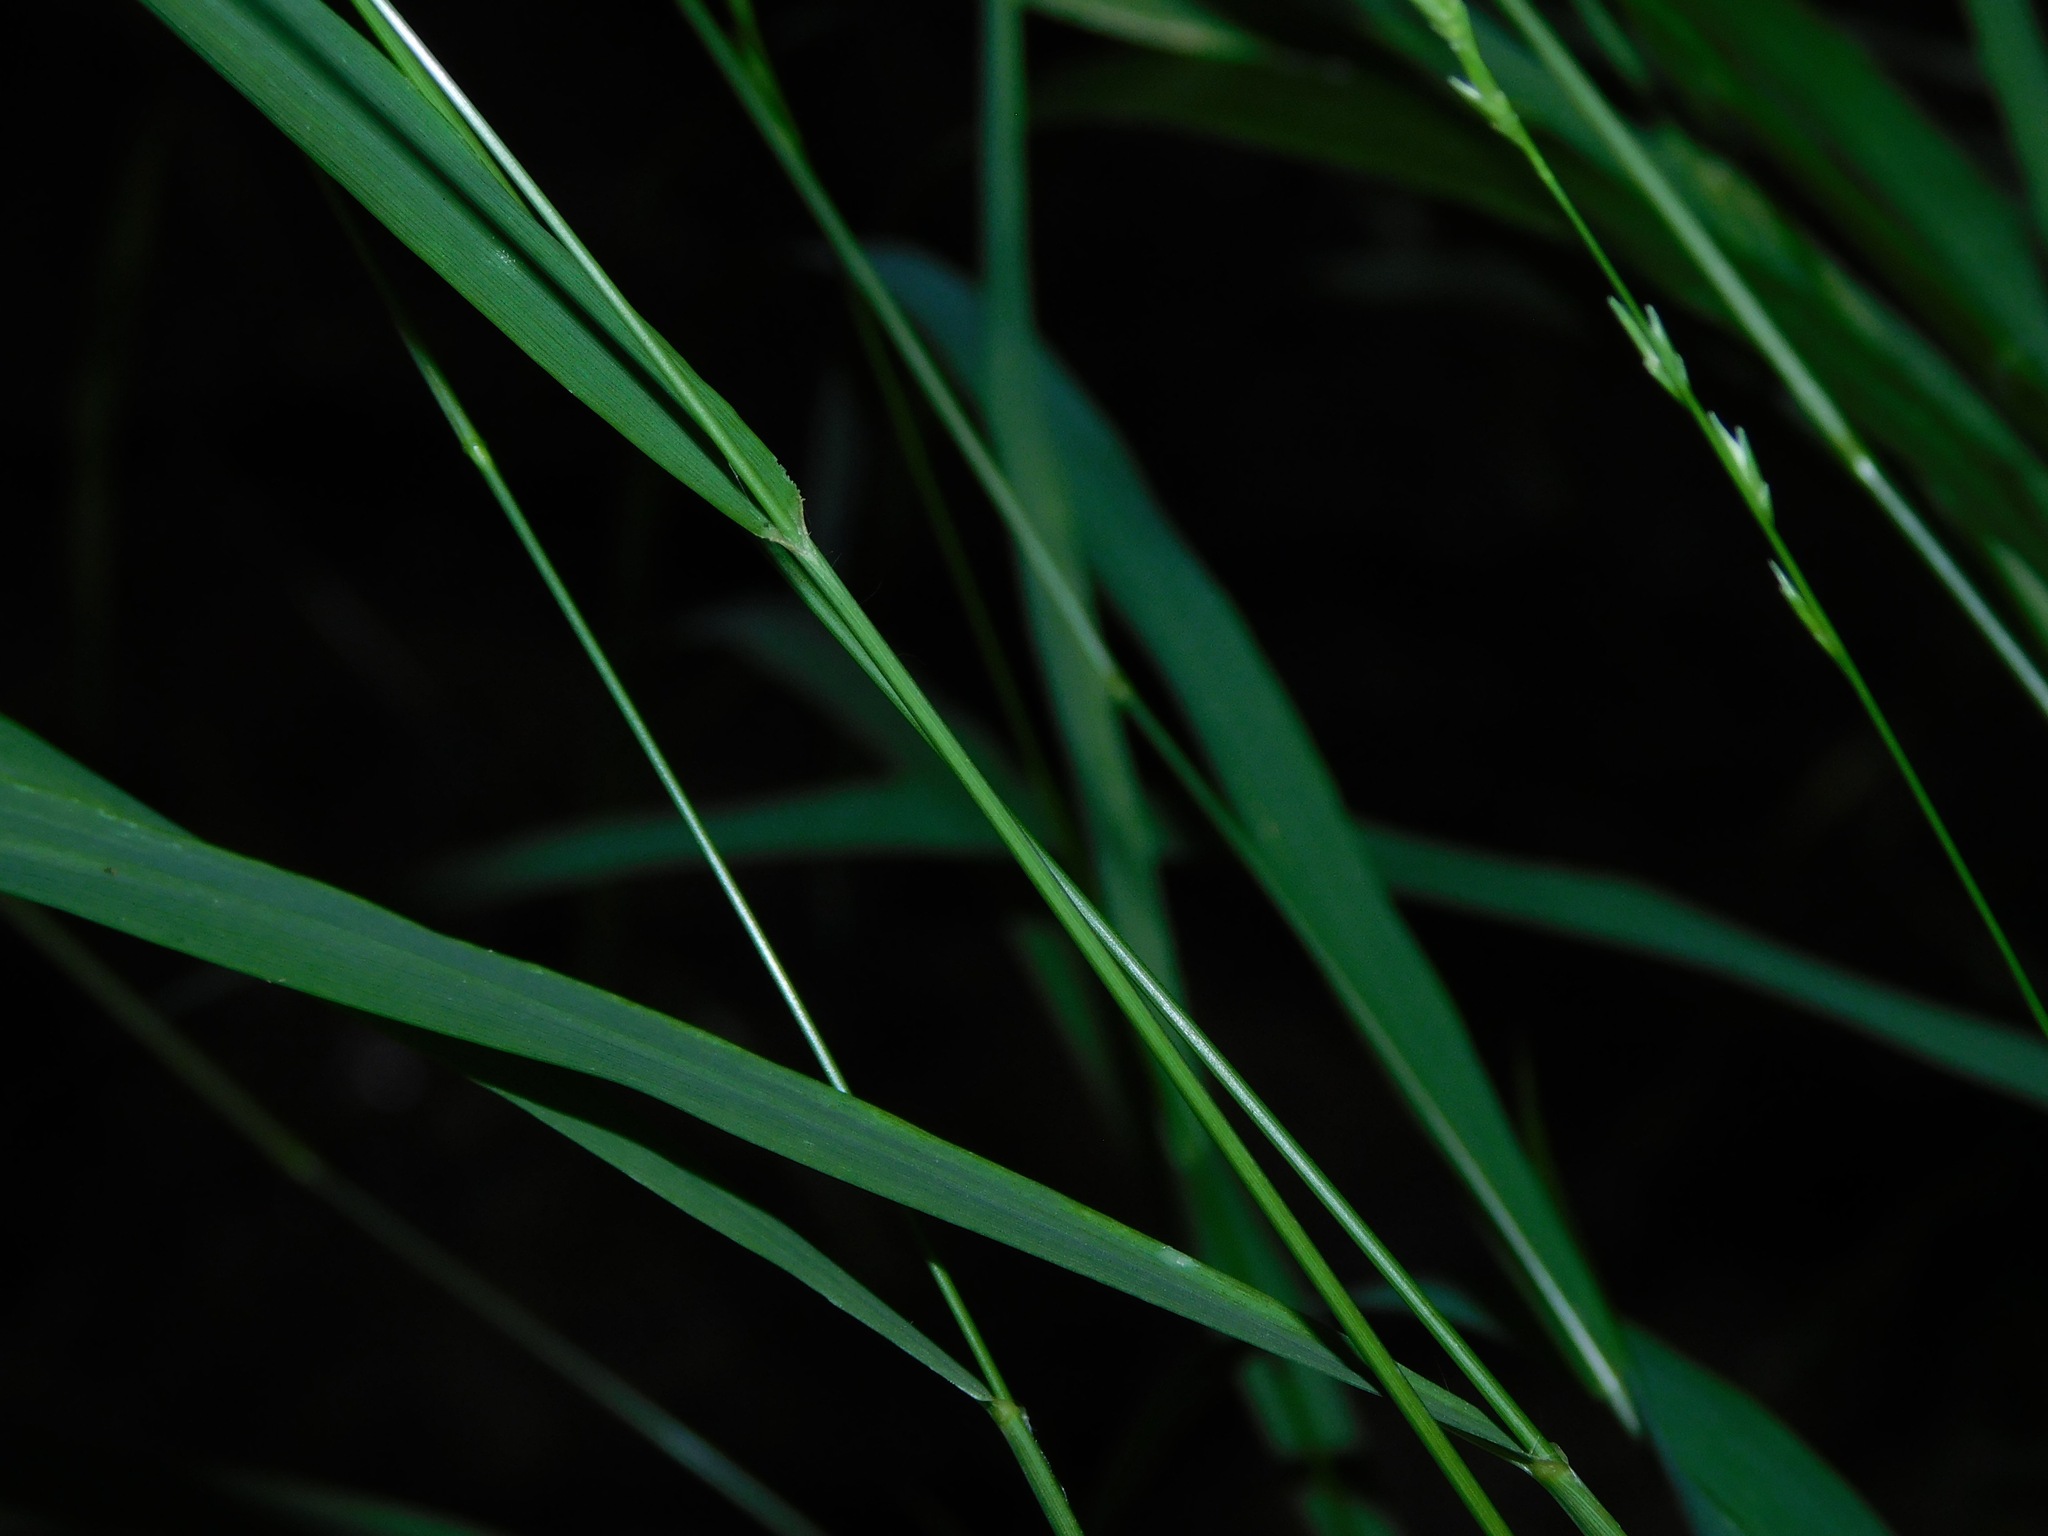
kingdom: Plantae
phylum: Tracheophyta
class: Liliopsida
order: Poales
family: Poaceae
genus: Chasmanthium
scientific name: Chasmanthium laxum
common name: Slender chasmanthium
